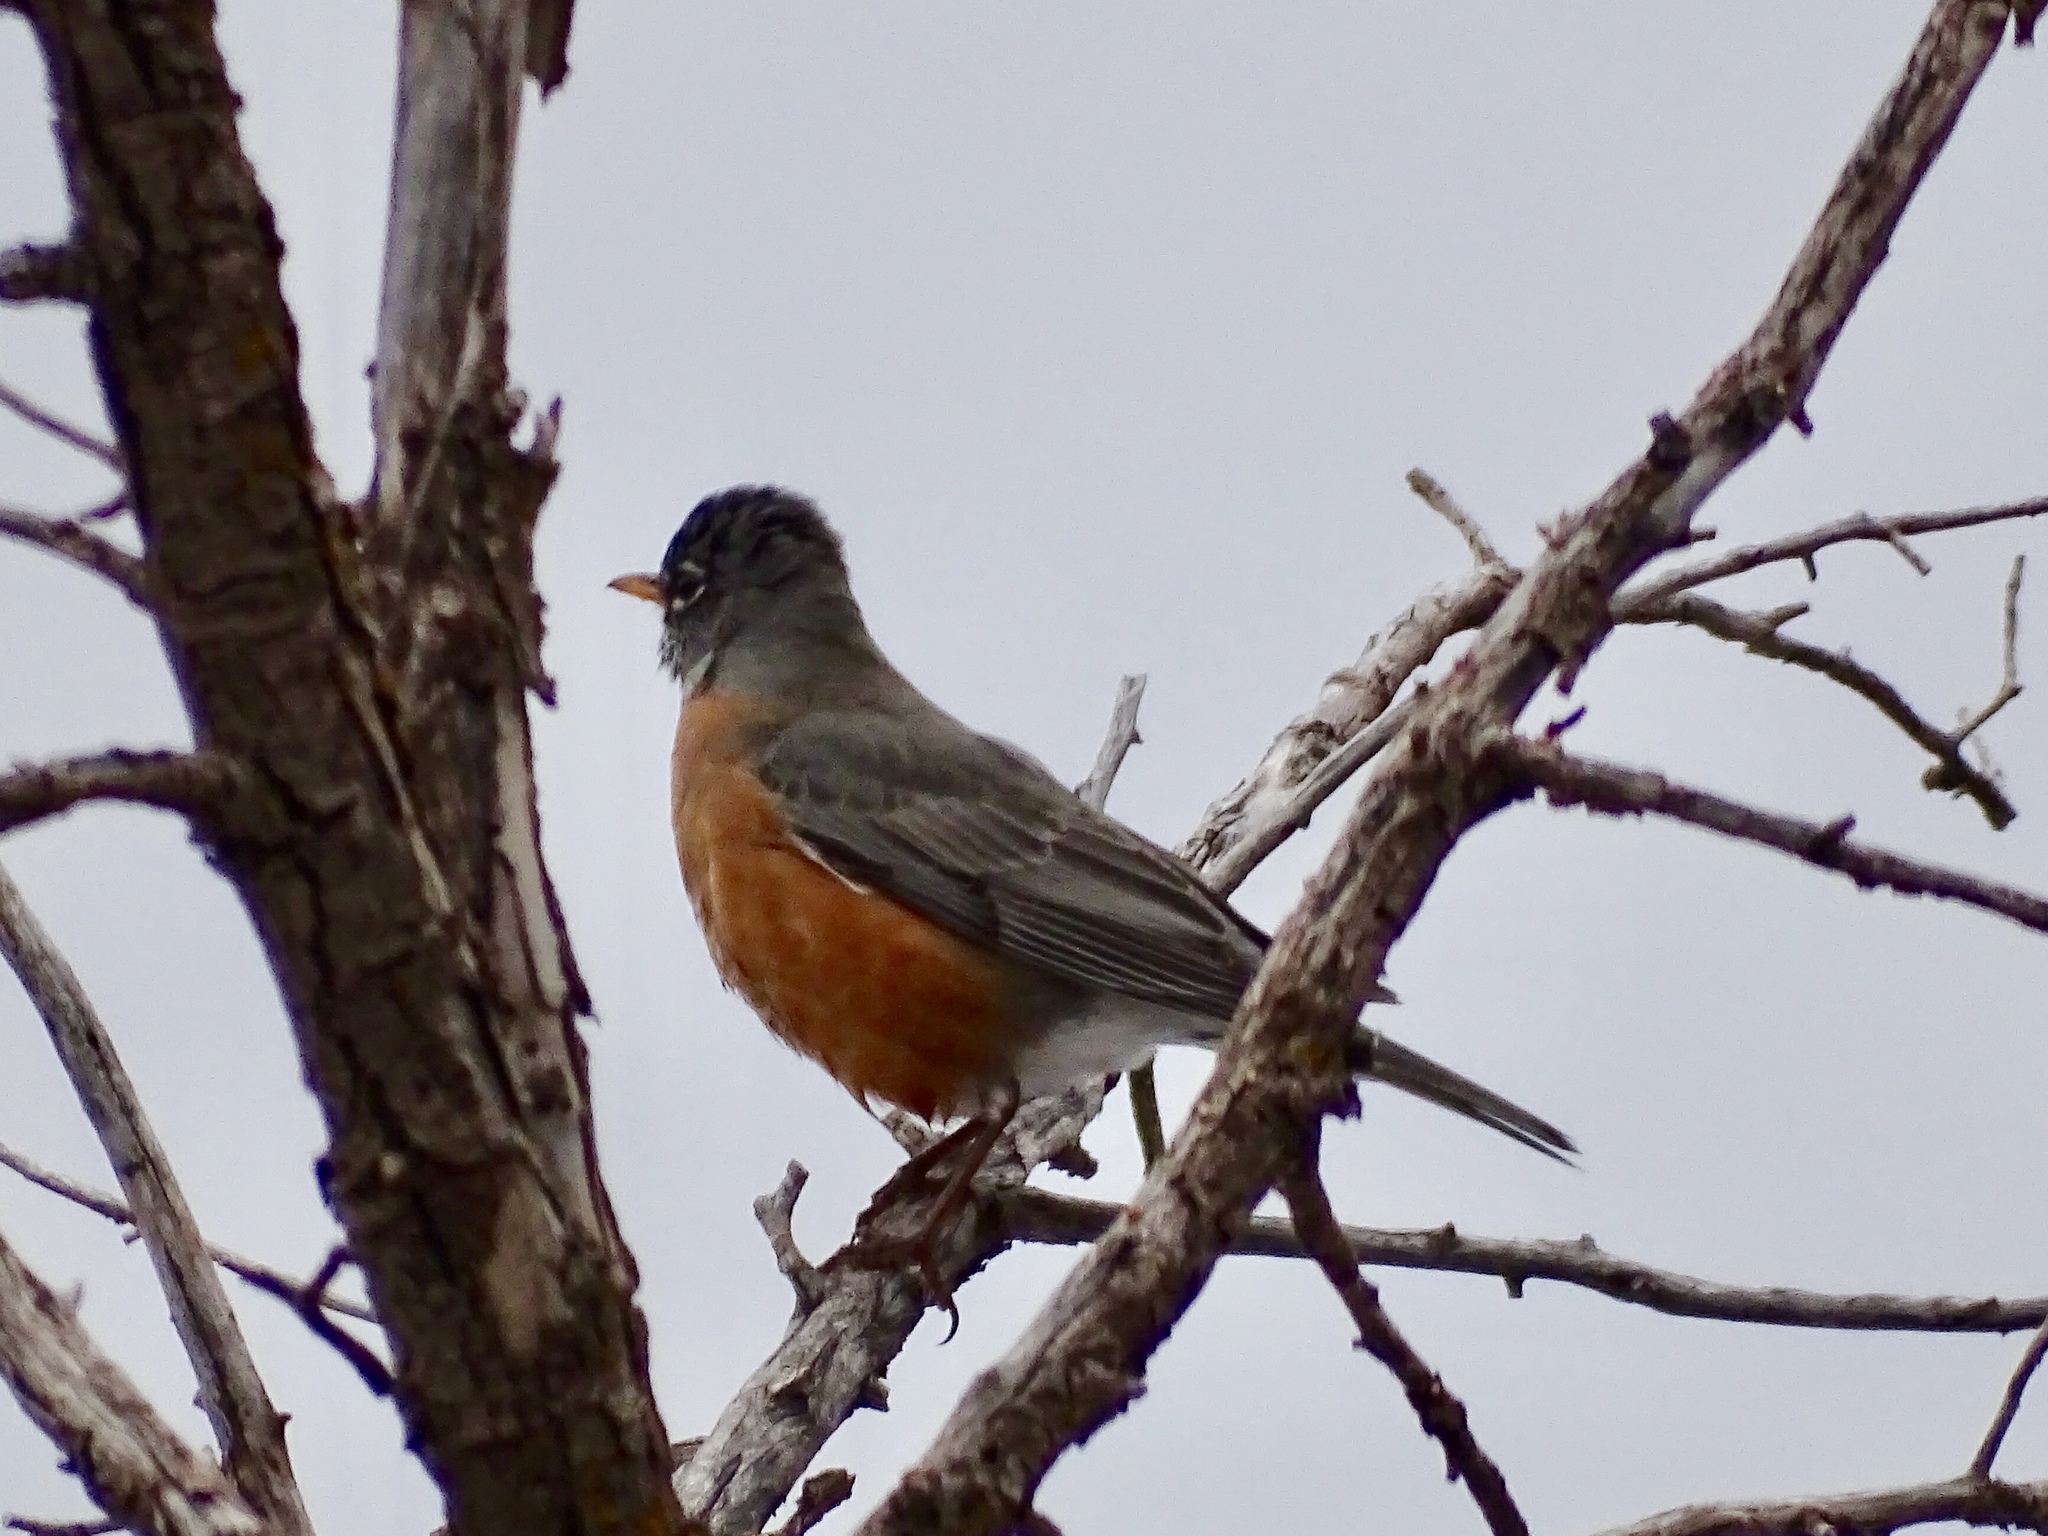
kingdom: Animalia
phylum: Chordata
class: Aves
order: Passeriformes
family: Turdidae
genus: Turdus
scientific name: Turdus migratorius
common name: American robin
